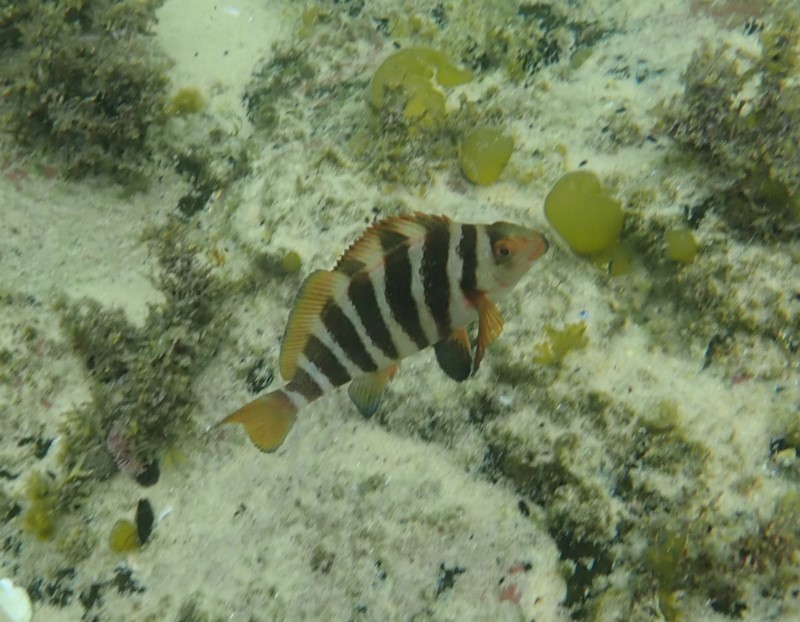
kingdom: Animalia
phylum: Chordata
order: Perciformes
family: Cheilodactylidae
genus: Cheilodactylus
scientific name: Cheilodactylus spectabilis
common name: Red moki
